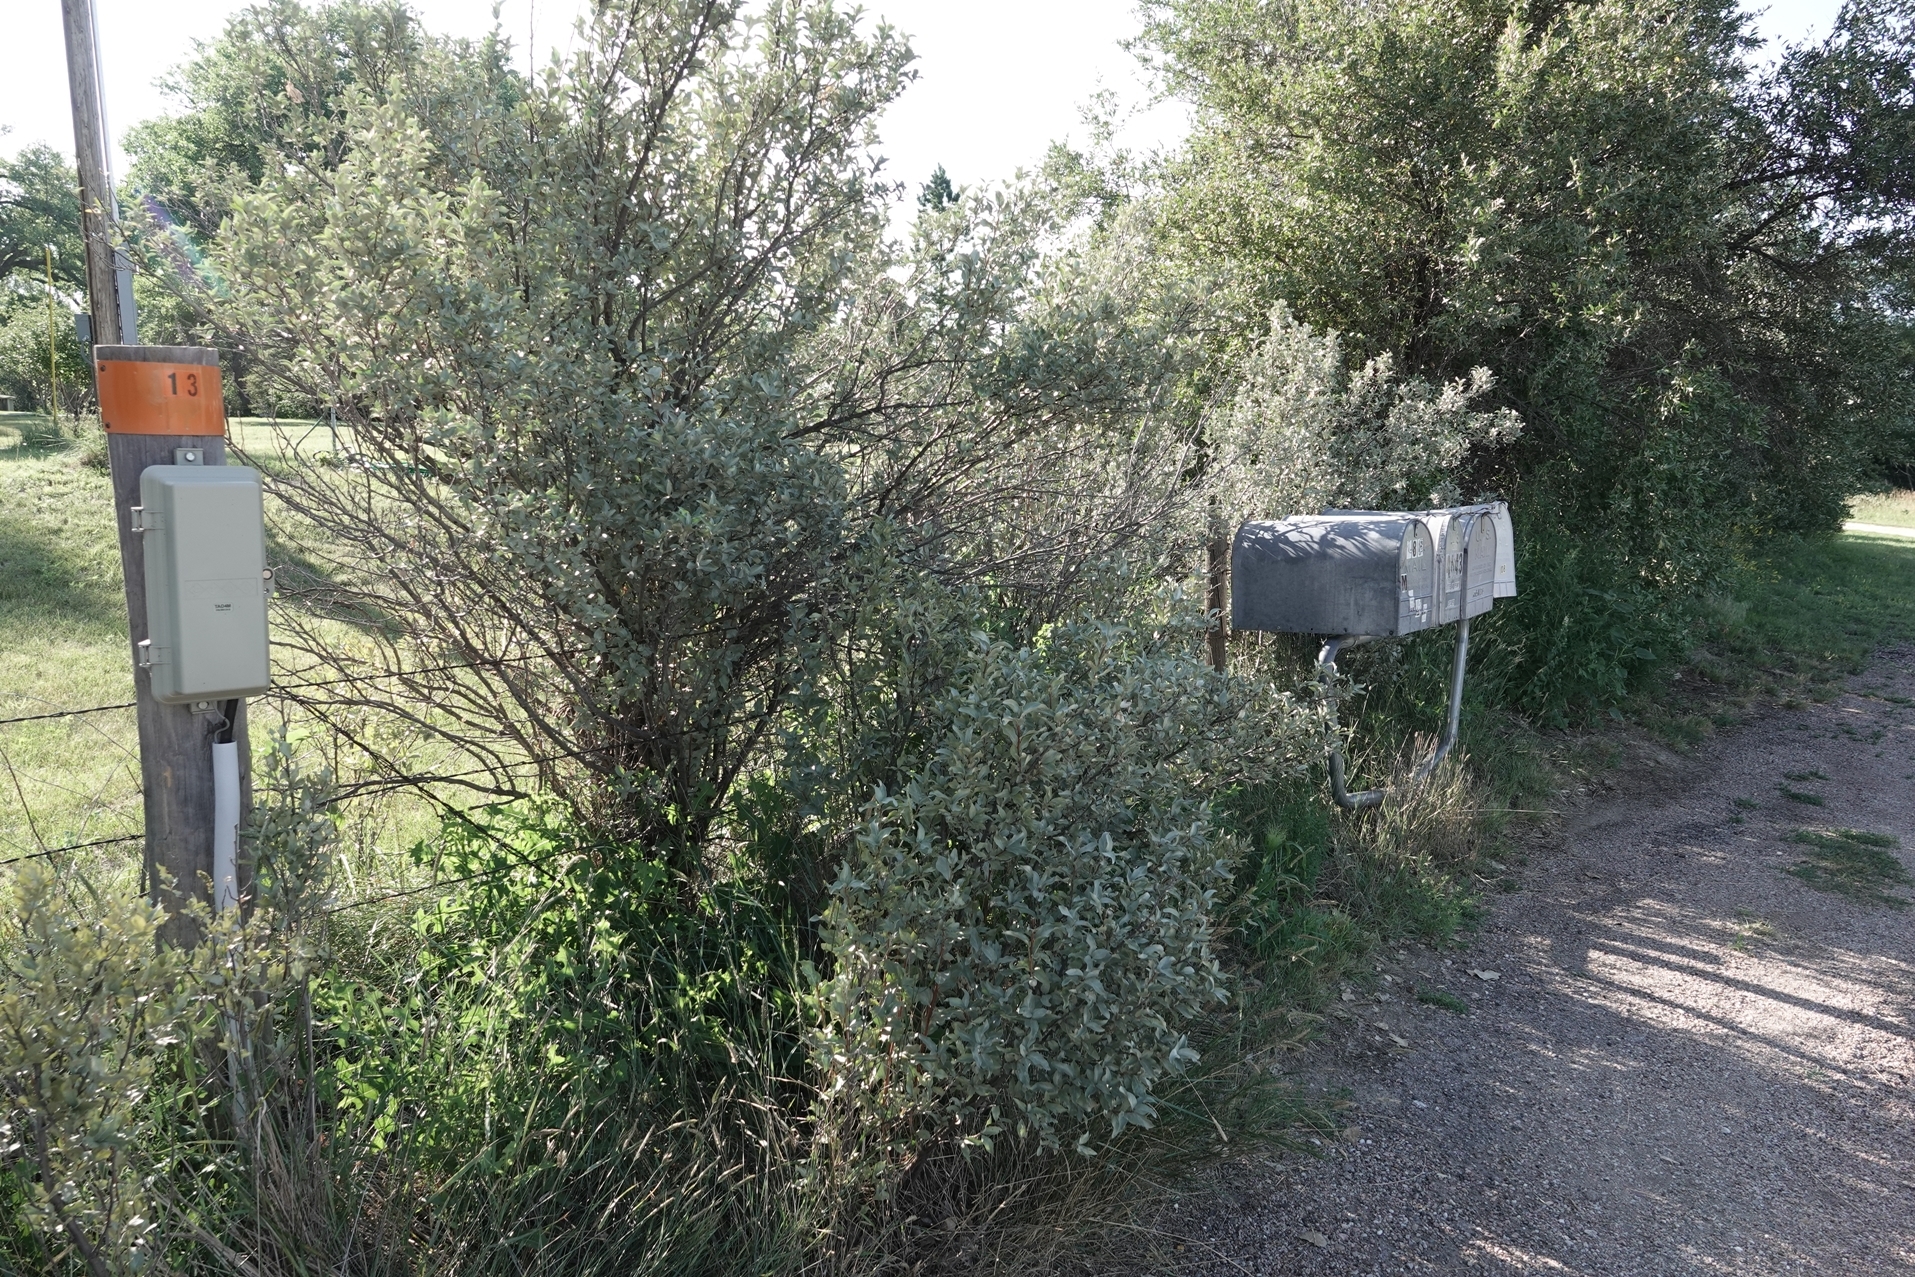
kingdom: Plantae
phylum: Tracheophyta
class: Magnoliopsida
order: Rosales
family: Elaeagnaceae
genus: Elaeagnus
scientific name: Elaeagnus commutata
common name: Silverberry
